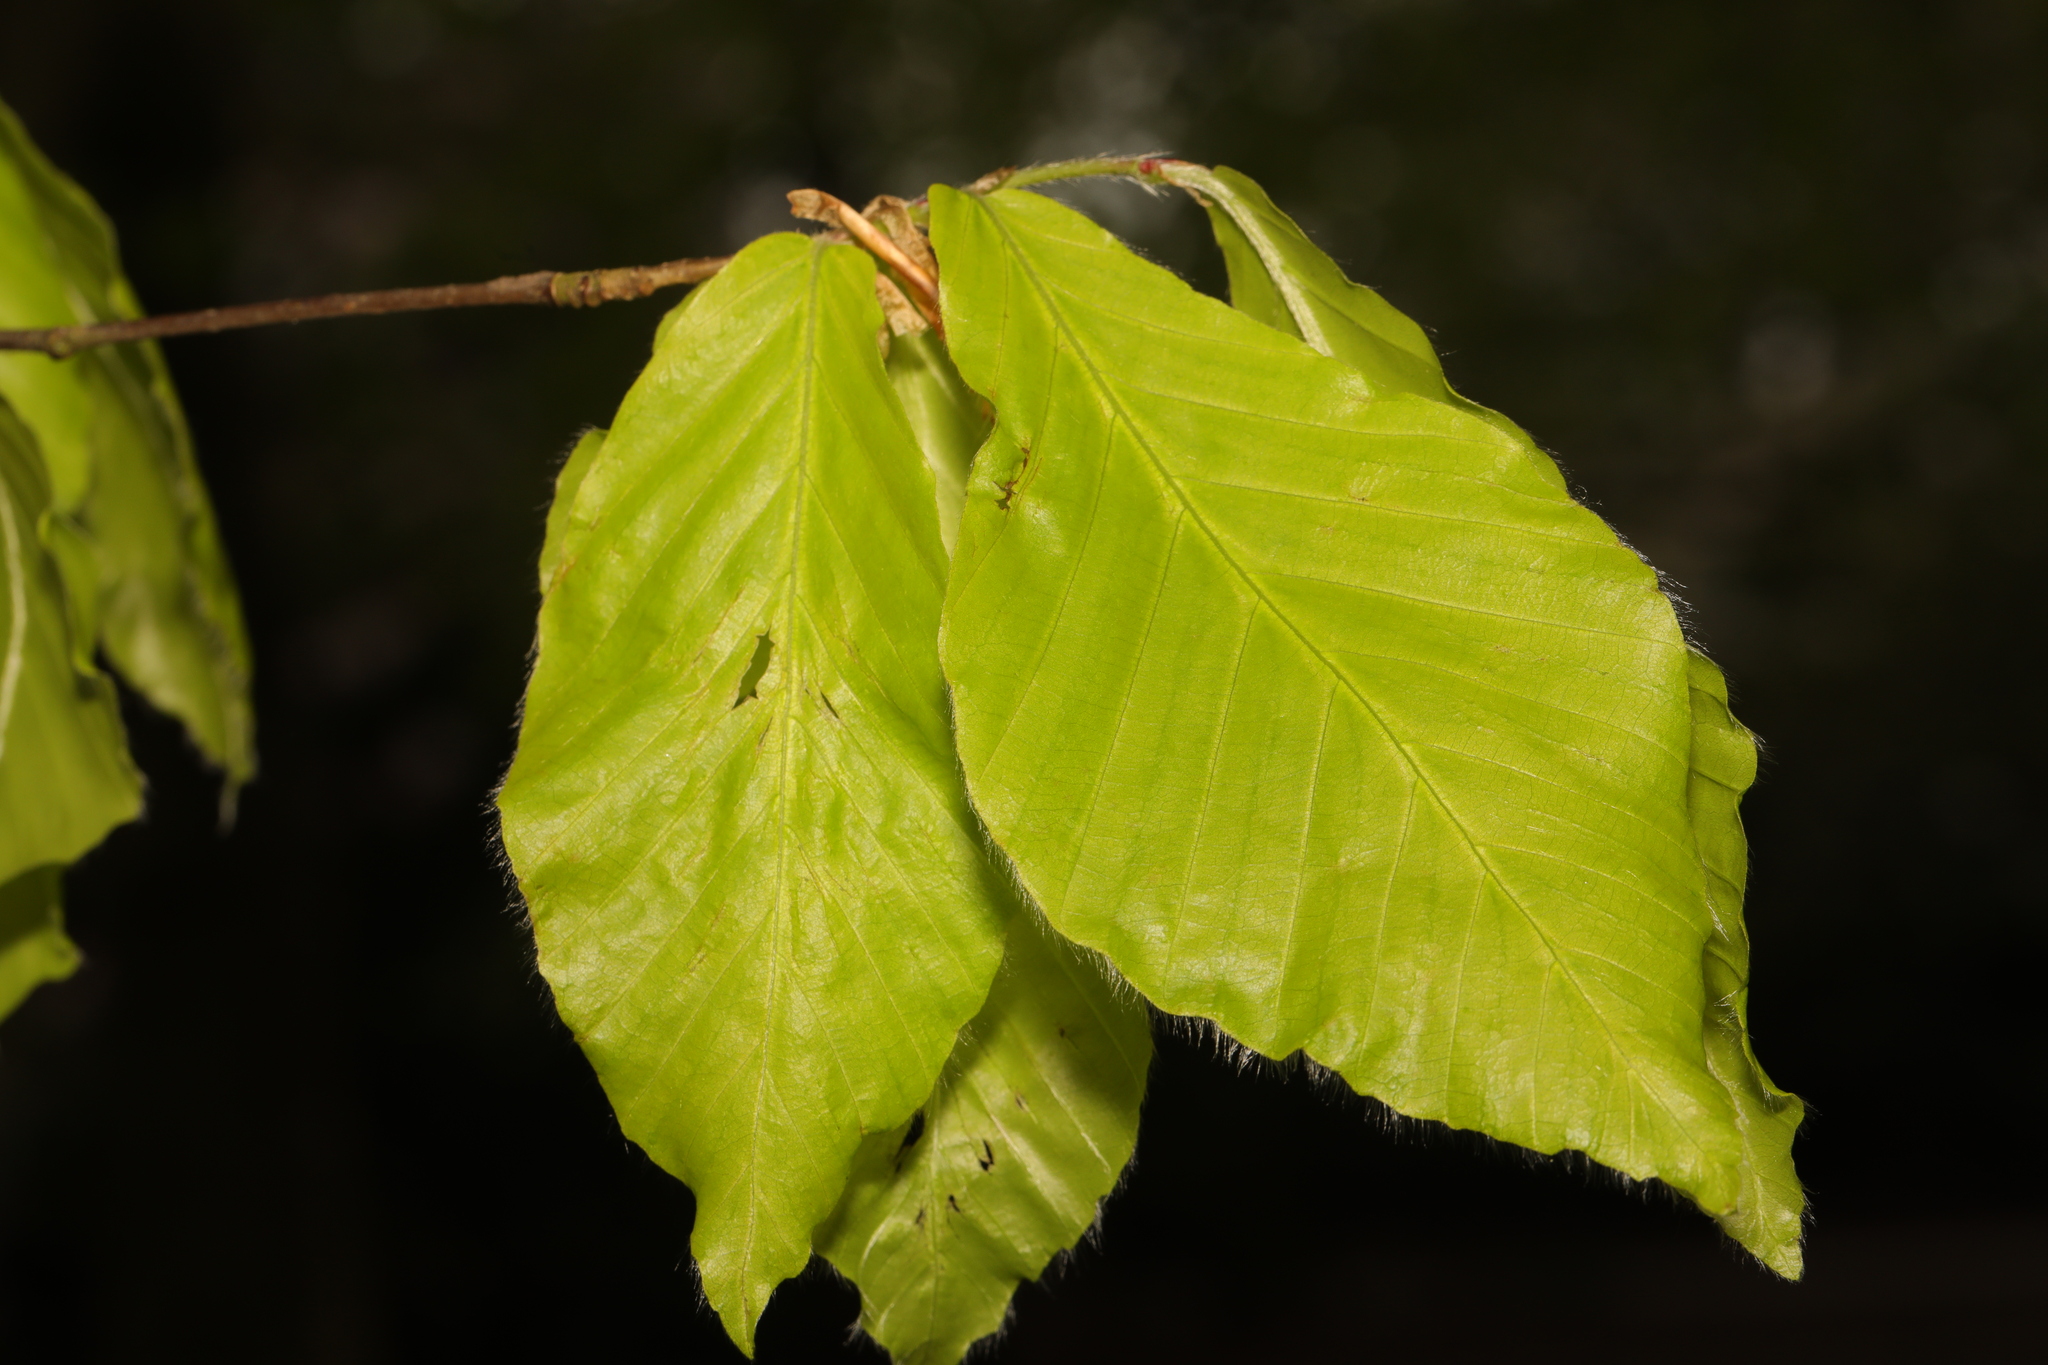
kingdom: Plantae
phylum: Tracheophyta
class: Magnoliopsida
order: Fagales
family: Fagaceae
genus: Fagus
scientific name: Fagus sylvatica
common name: Beech
